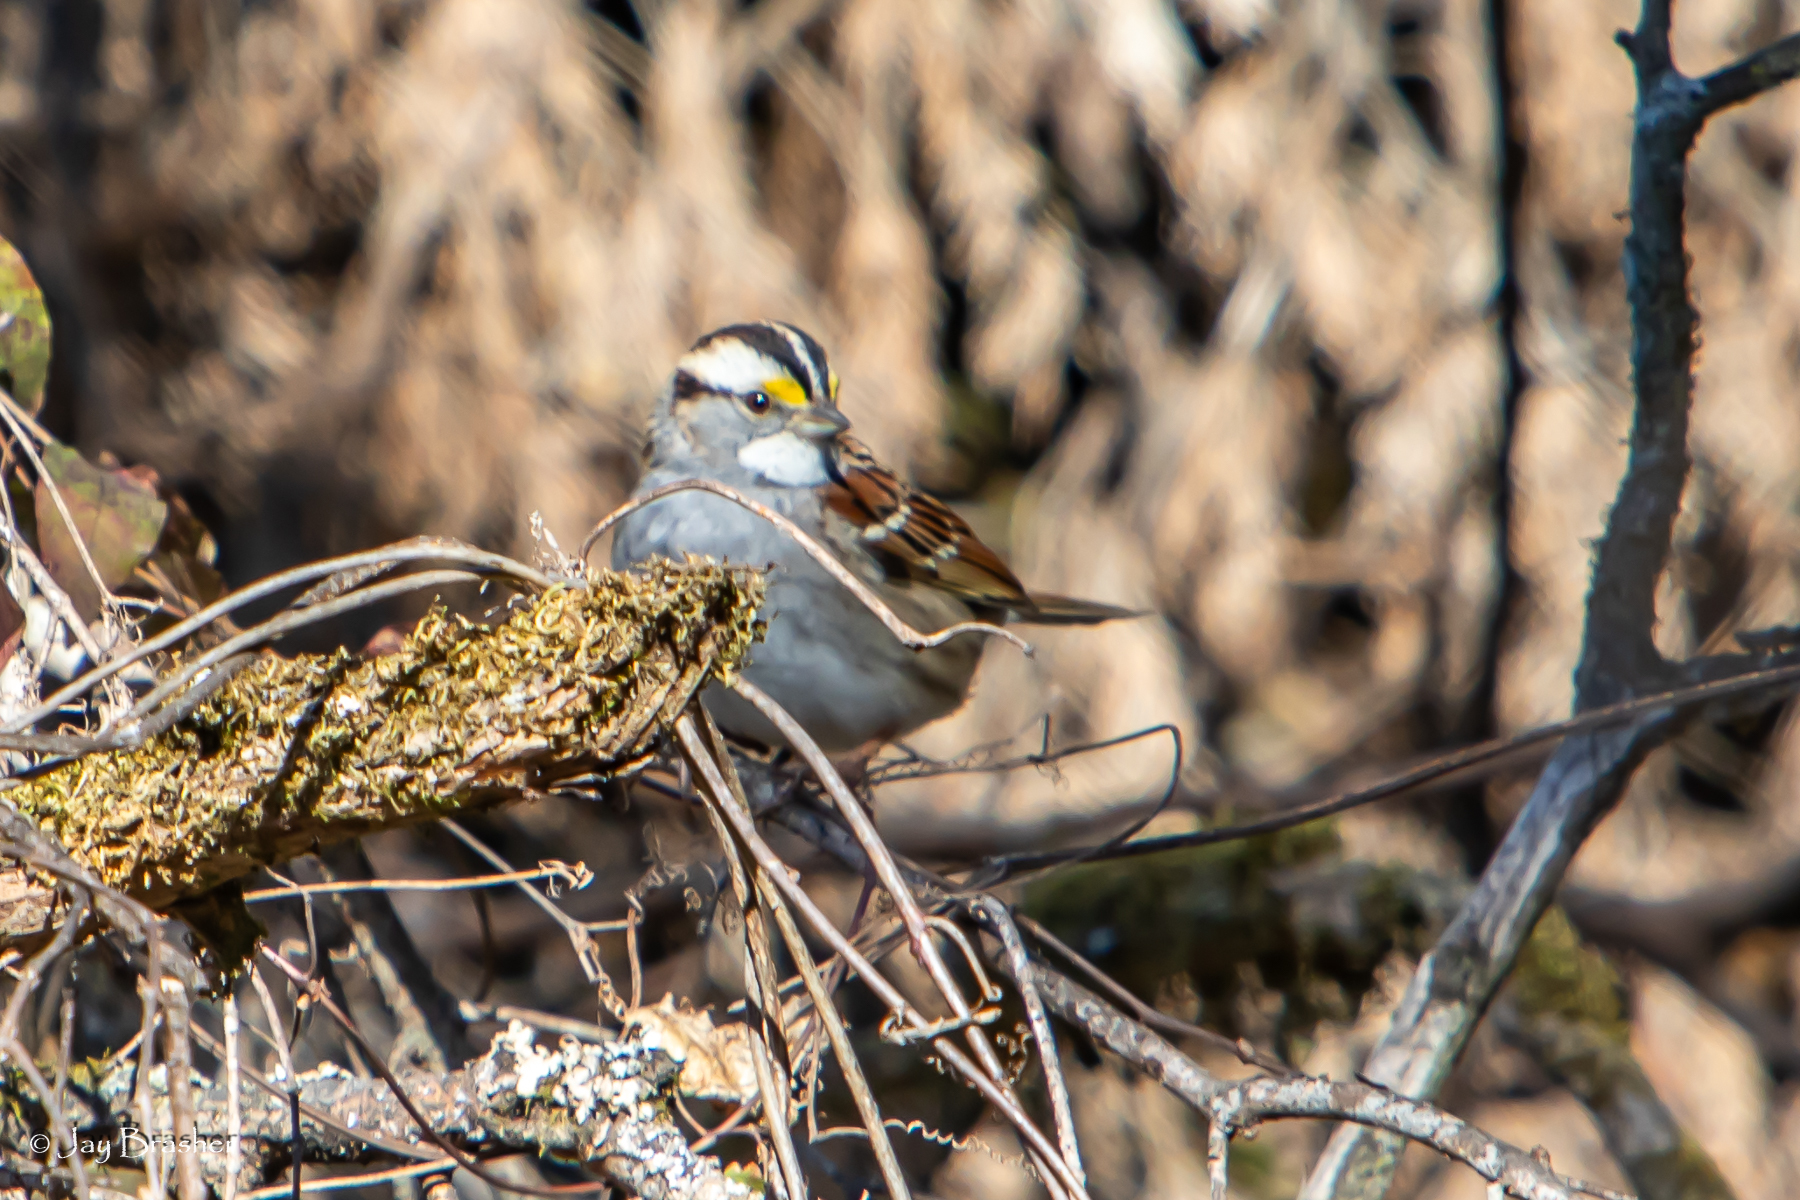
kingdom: Animalia
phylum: Chordata
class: Aves
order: Passeriformes
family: Passerellidae
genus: Zonotrichia
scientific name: Zonotrichia albicollis
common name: White-throated sparrow
